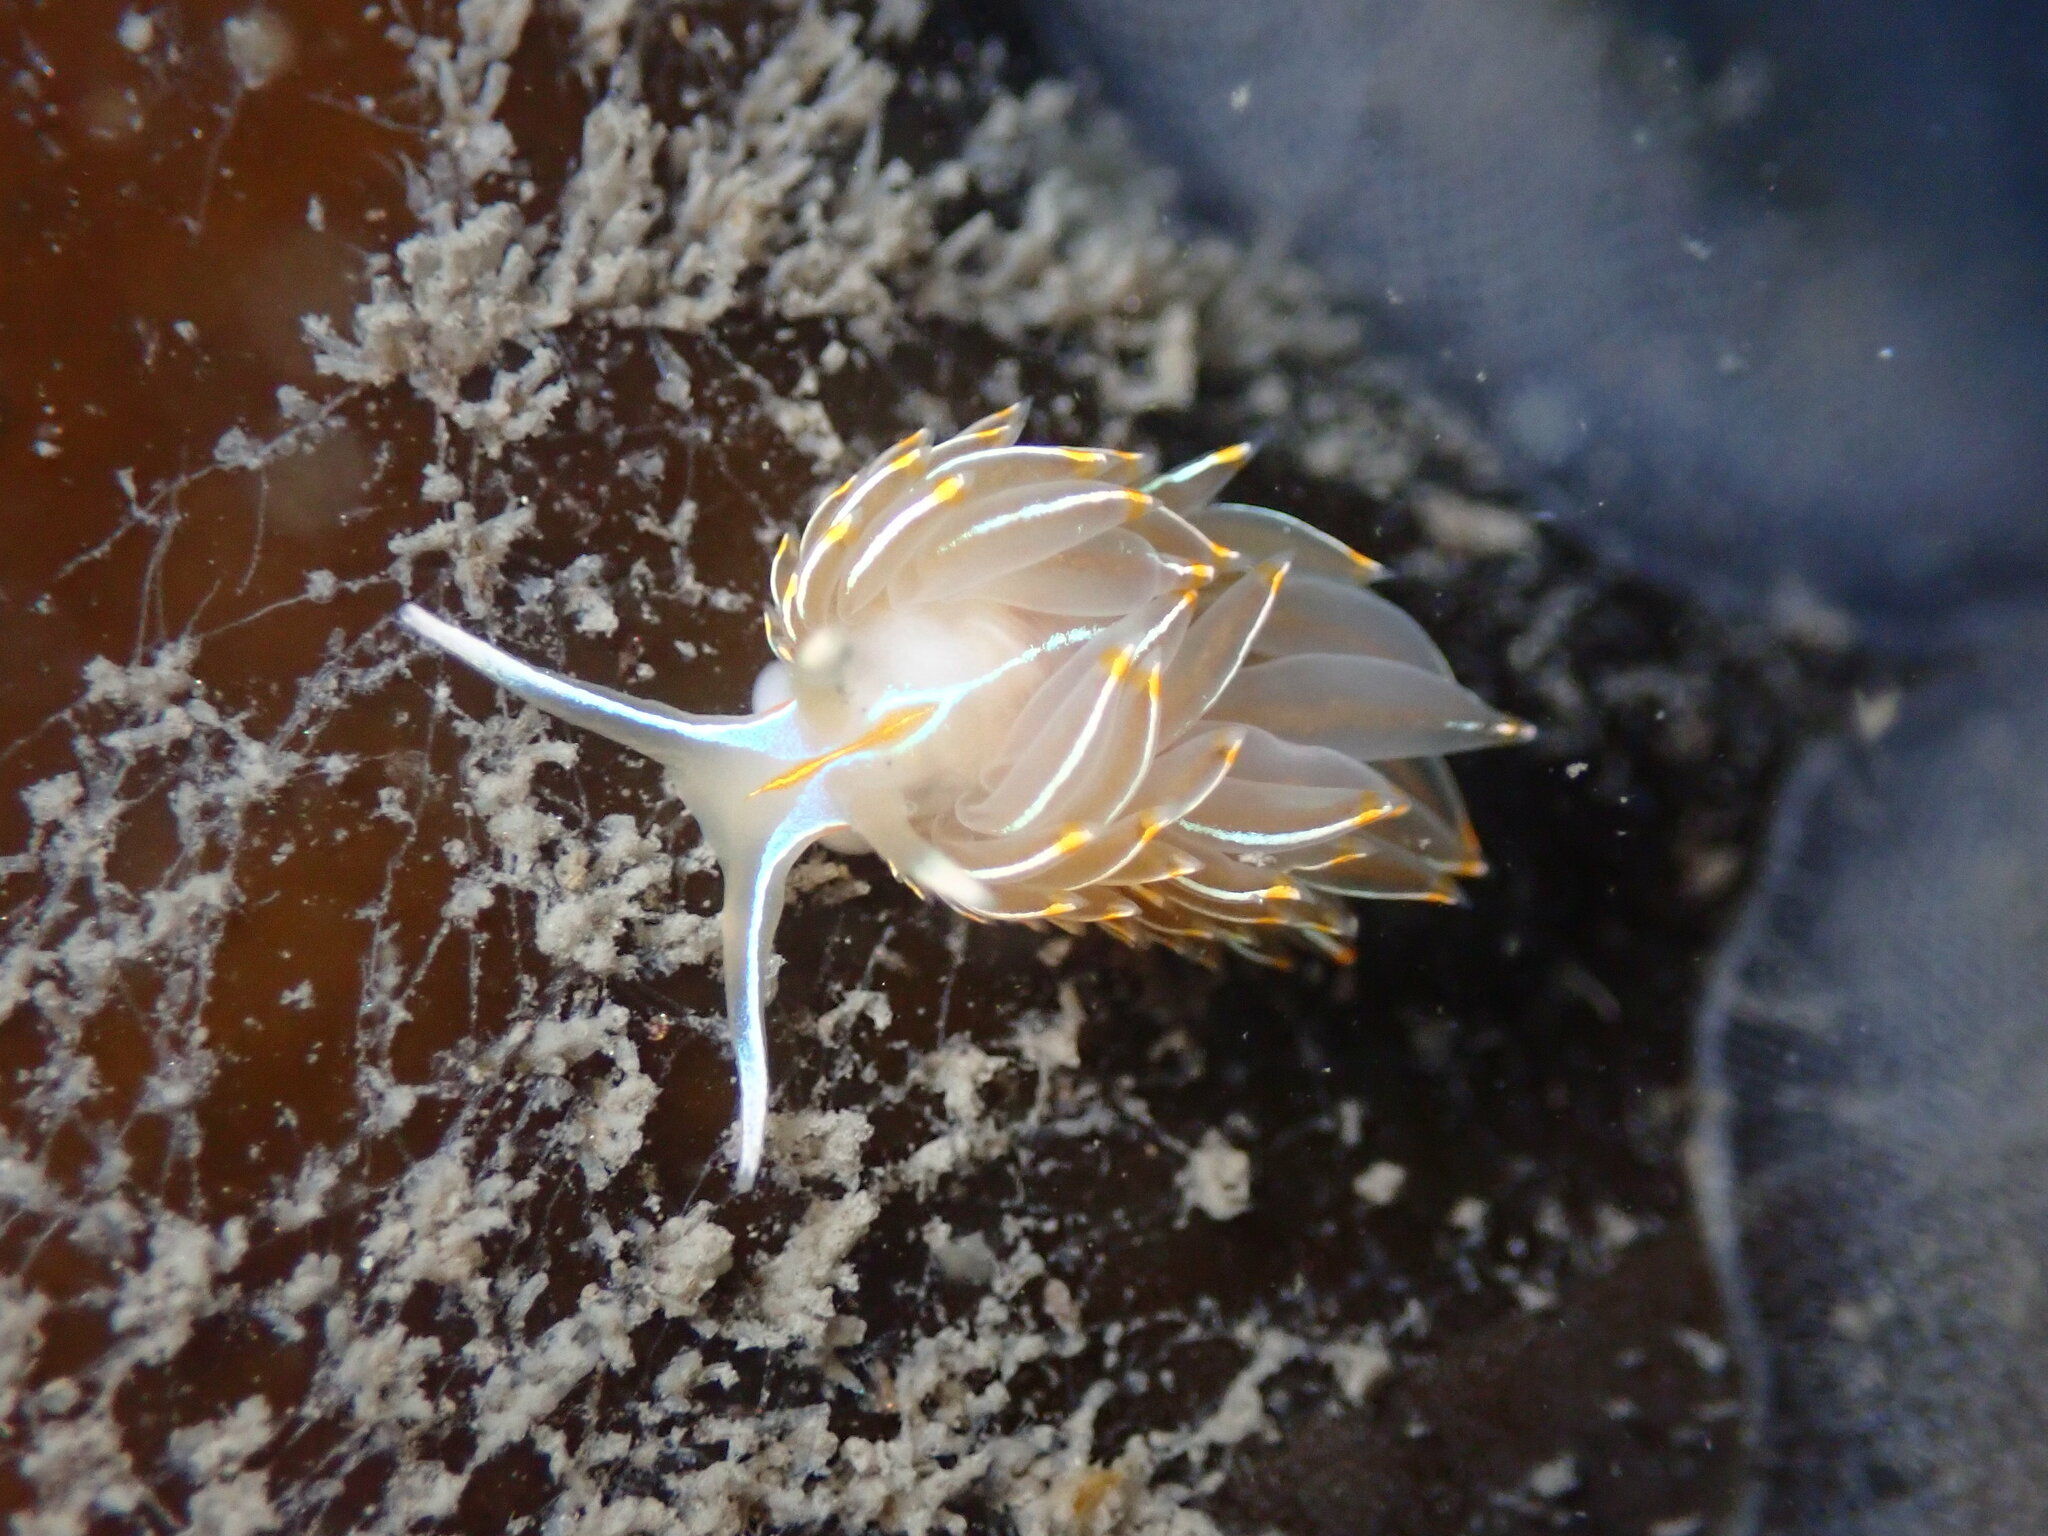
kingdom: Animalia
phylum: Mollusca
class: Gastropoda
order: Nudibranchia
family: Myrrhinidae
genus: Hermissenda
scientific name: Hermissenda crassicornis
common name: Hermissenda
